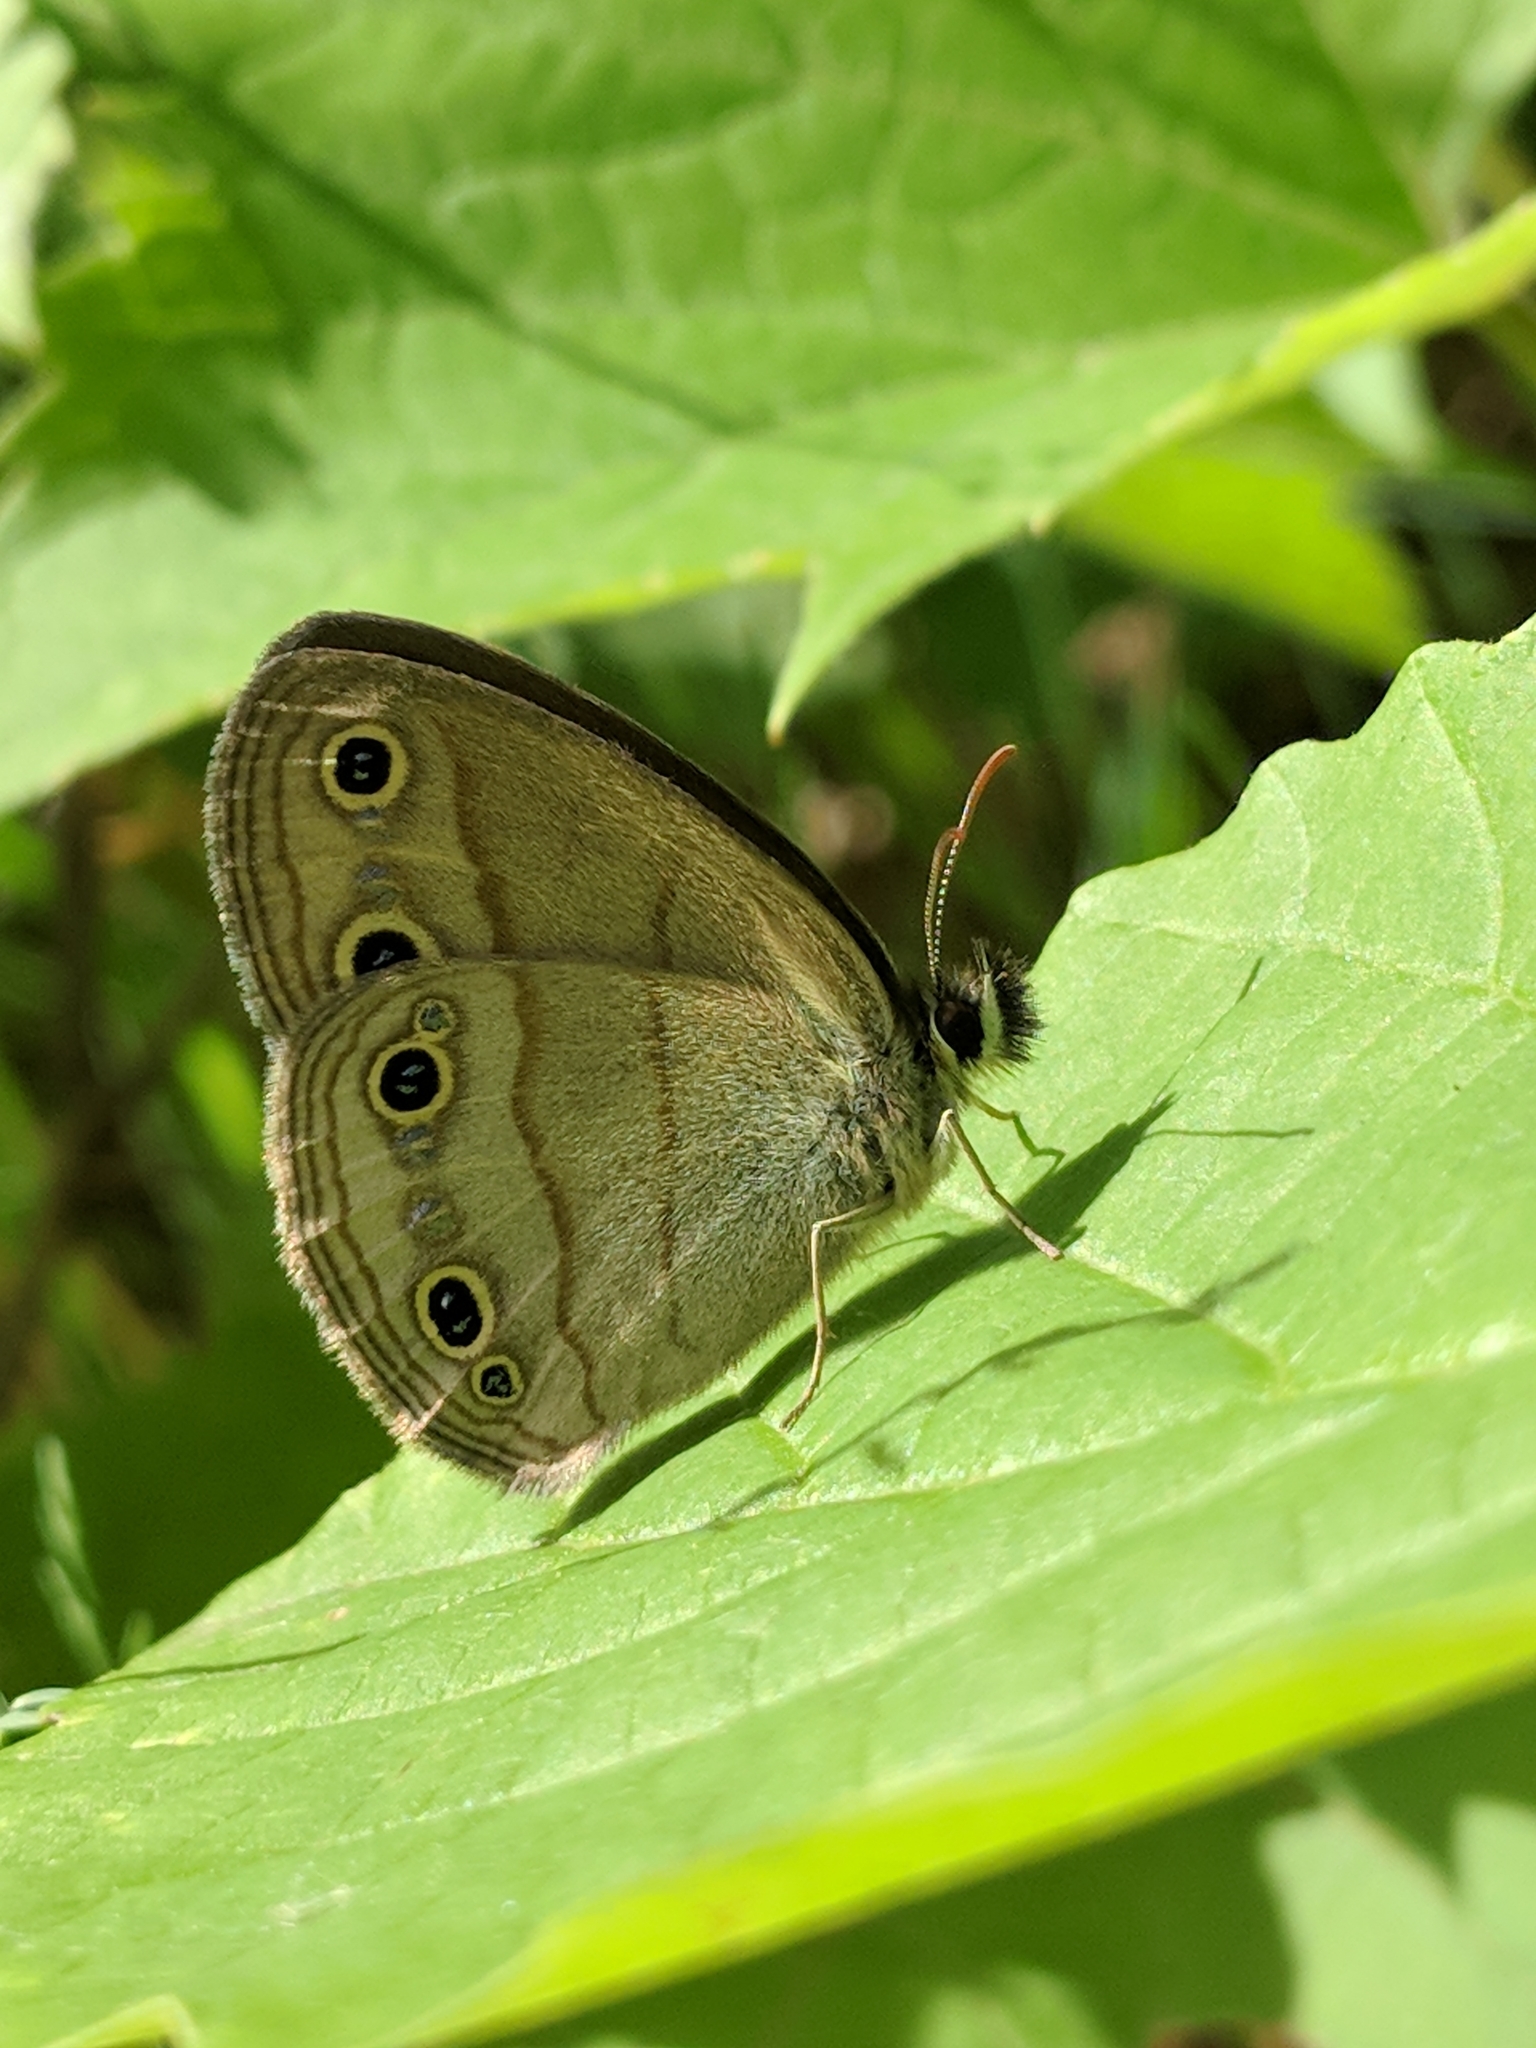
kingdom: Animalia
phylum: Arthropoda
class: Insecta
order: Lepidoptera
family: Nymphalidae
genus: Euptychia
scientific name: Euptychia cymela
